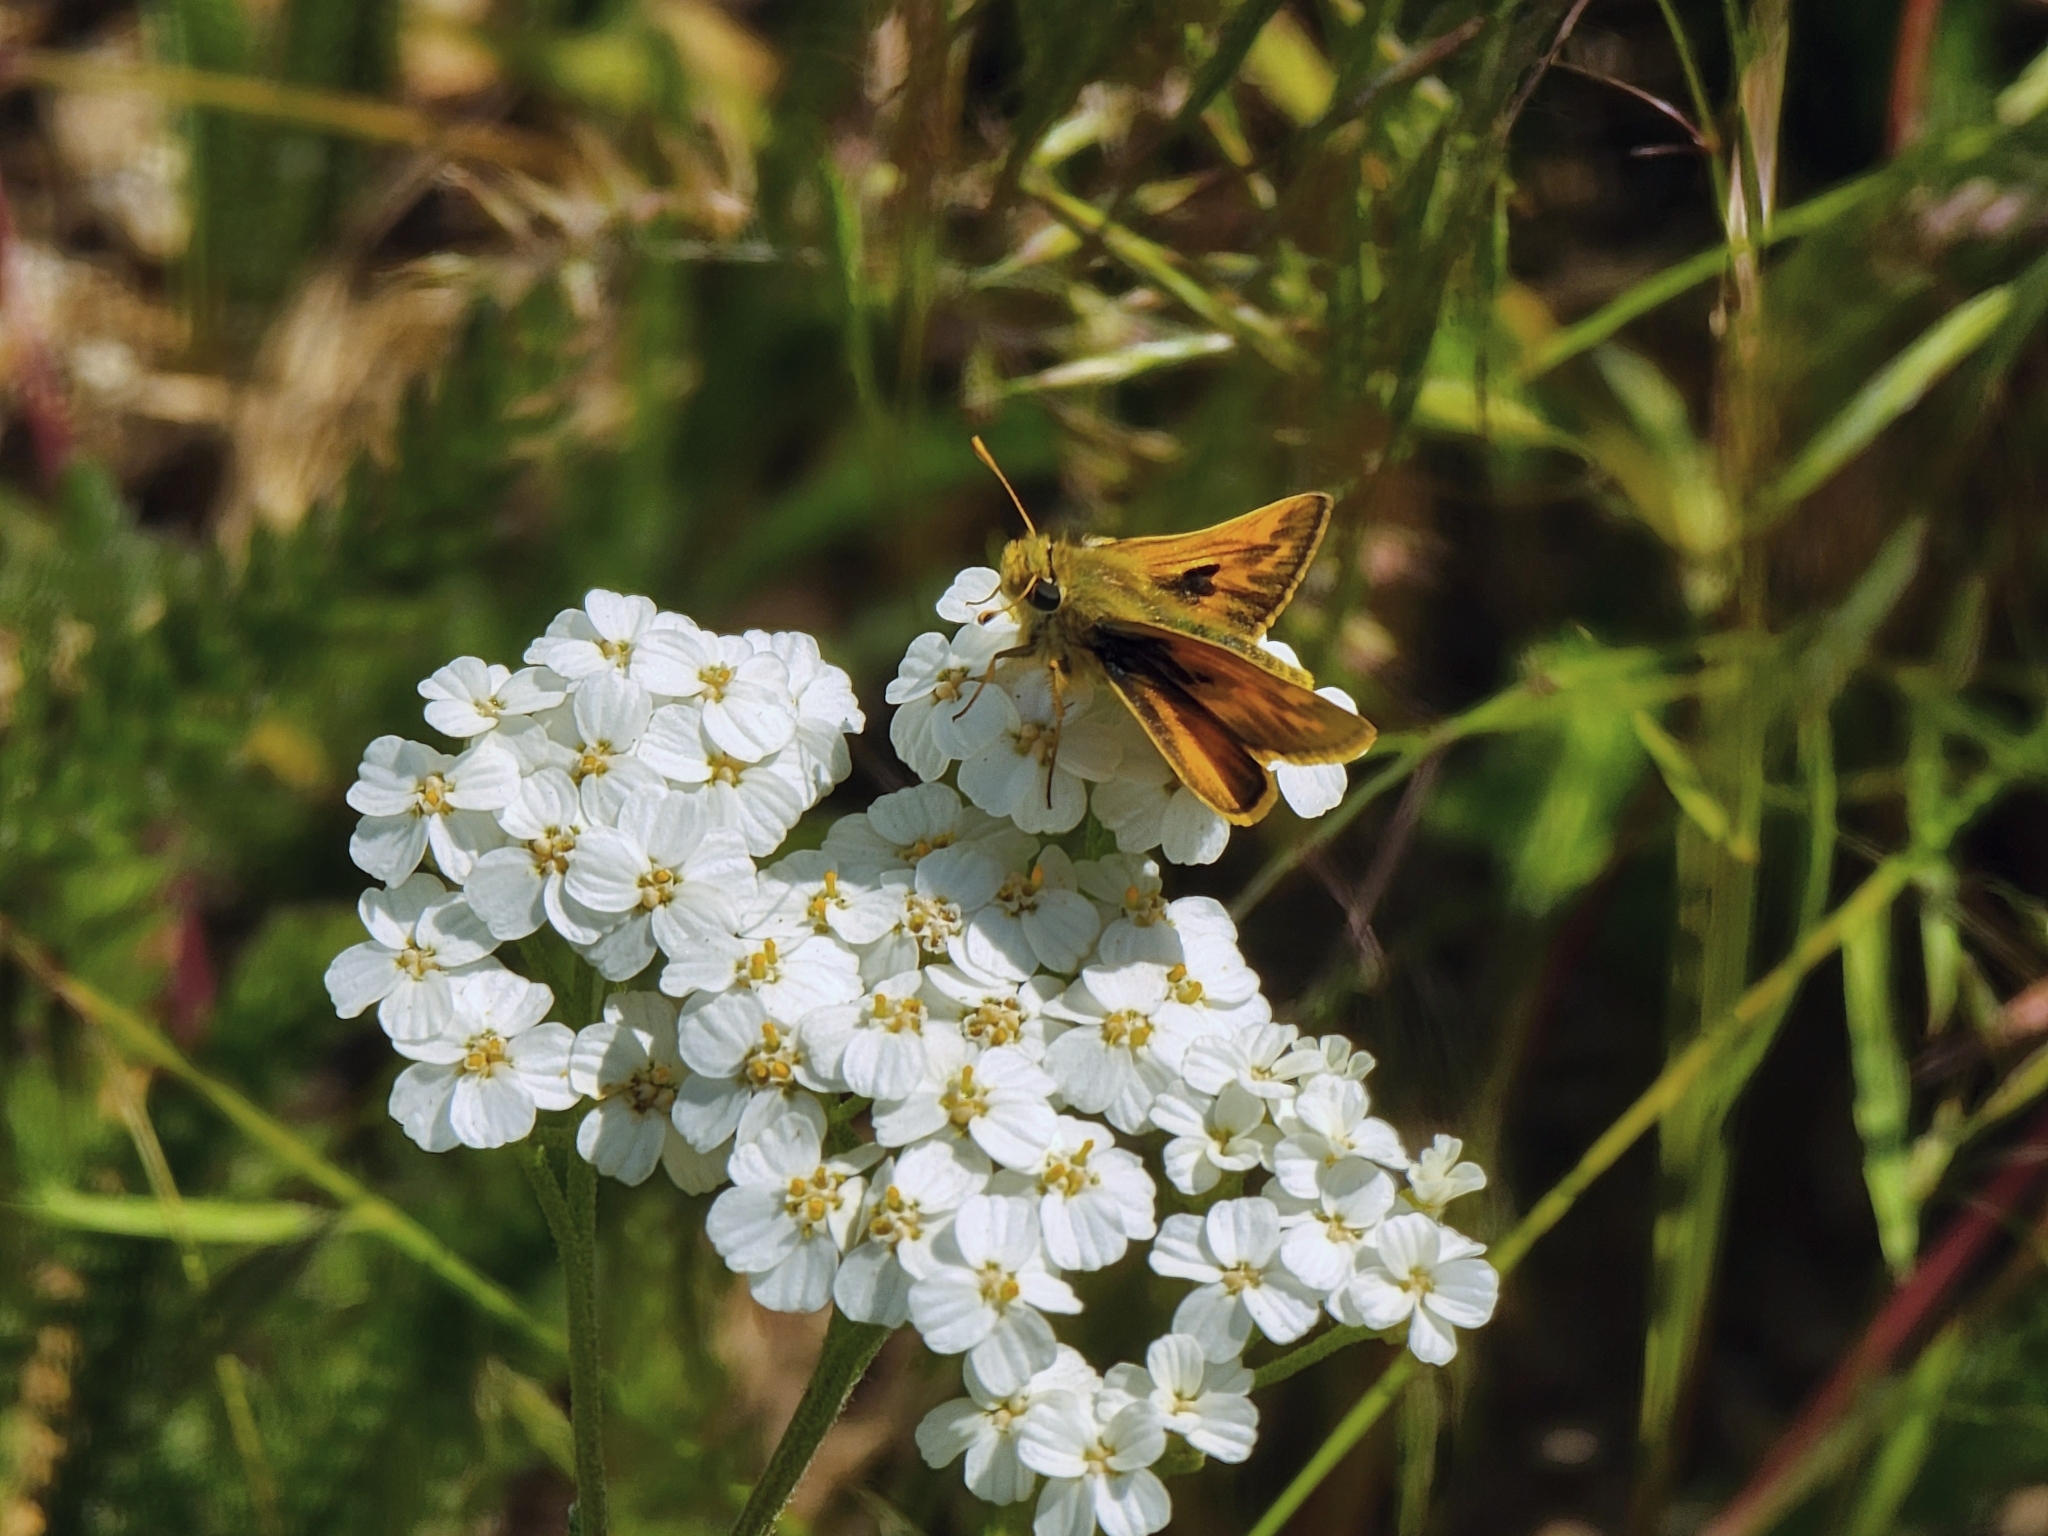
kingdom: Animalia
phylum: Arthropoda
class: Insecta
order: Lepidoptera
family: Hesperiidae
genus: Polites
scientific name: Polites sabuleti
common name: Sandhill skipper
